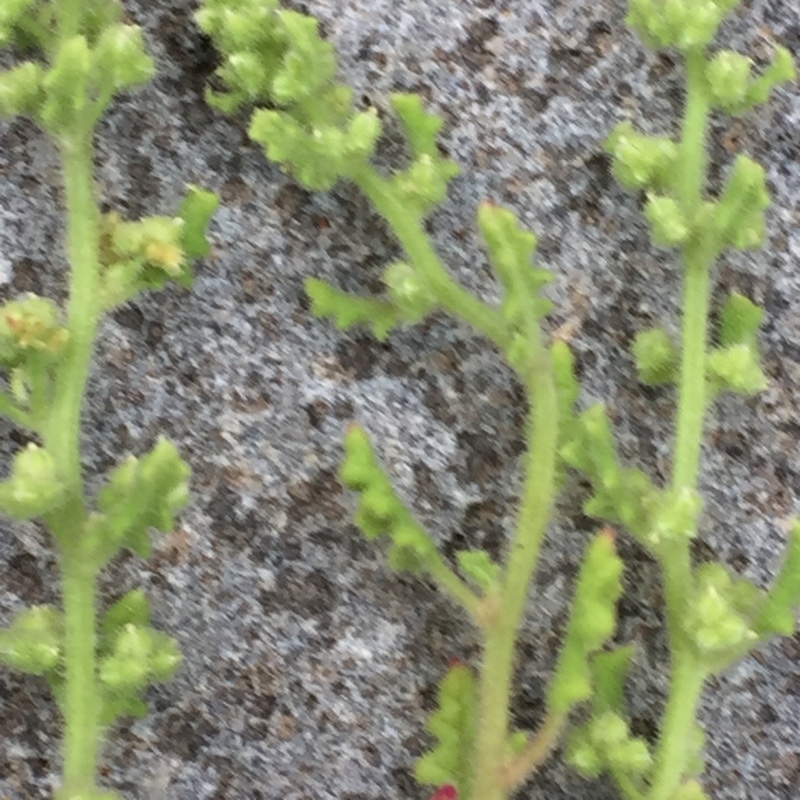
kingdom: Plantae
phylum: Tracheophyta
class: Magnoliopsida
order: Caryophyllales
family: Amaranthaceae
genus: Dysphania
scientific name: Dysphania botrys
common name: Feather-geranium
